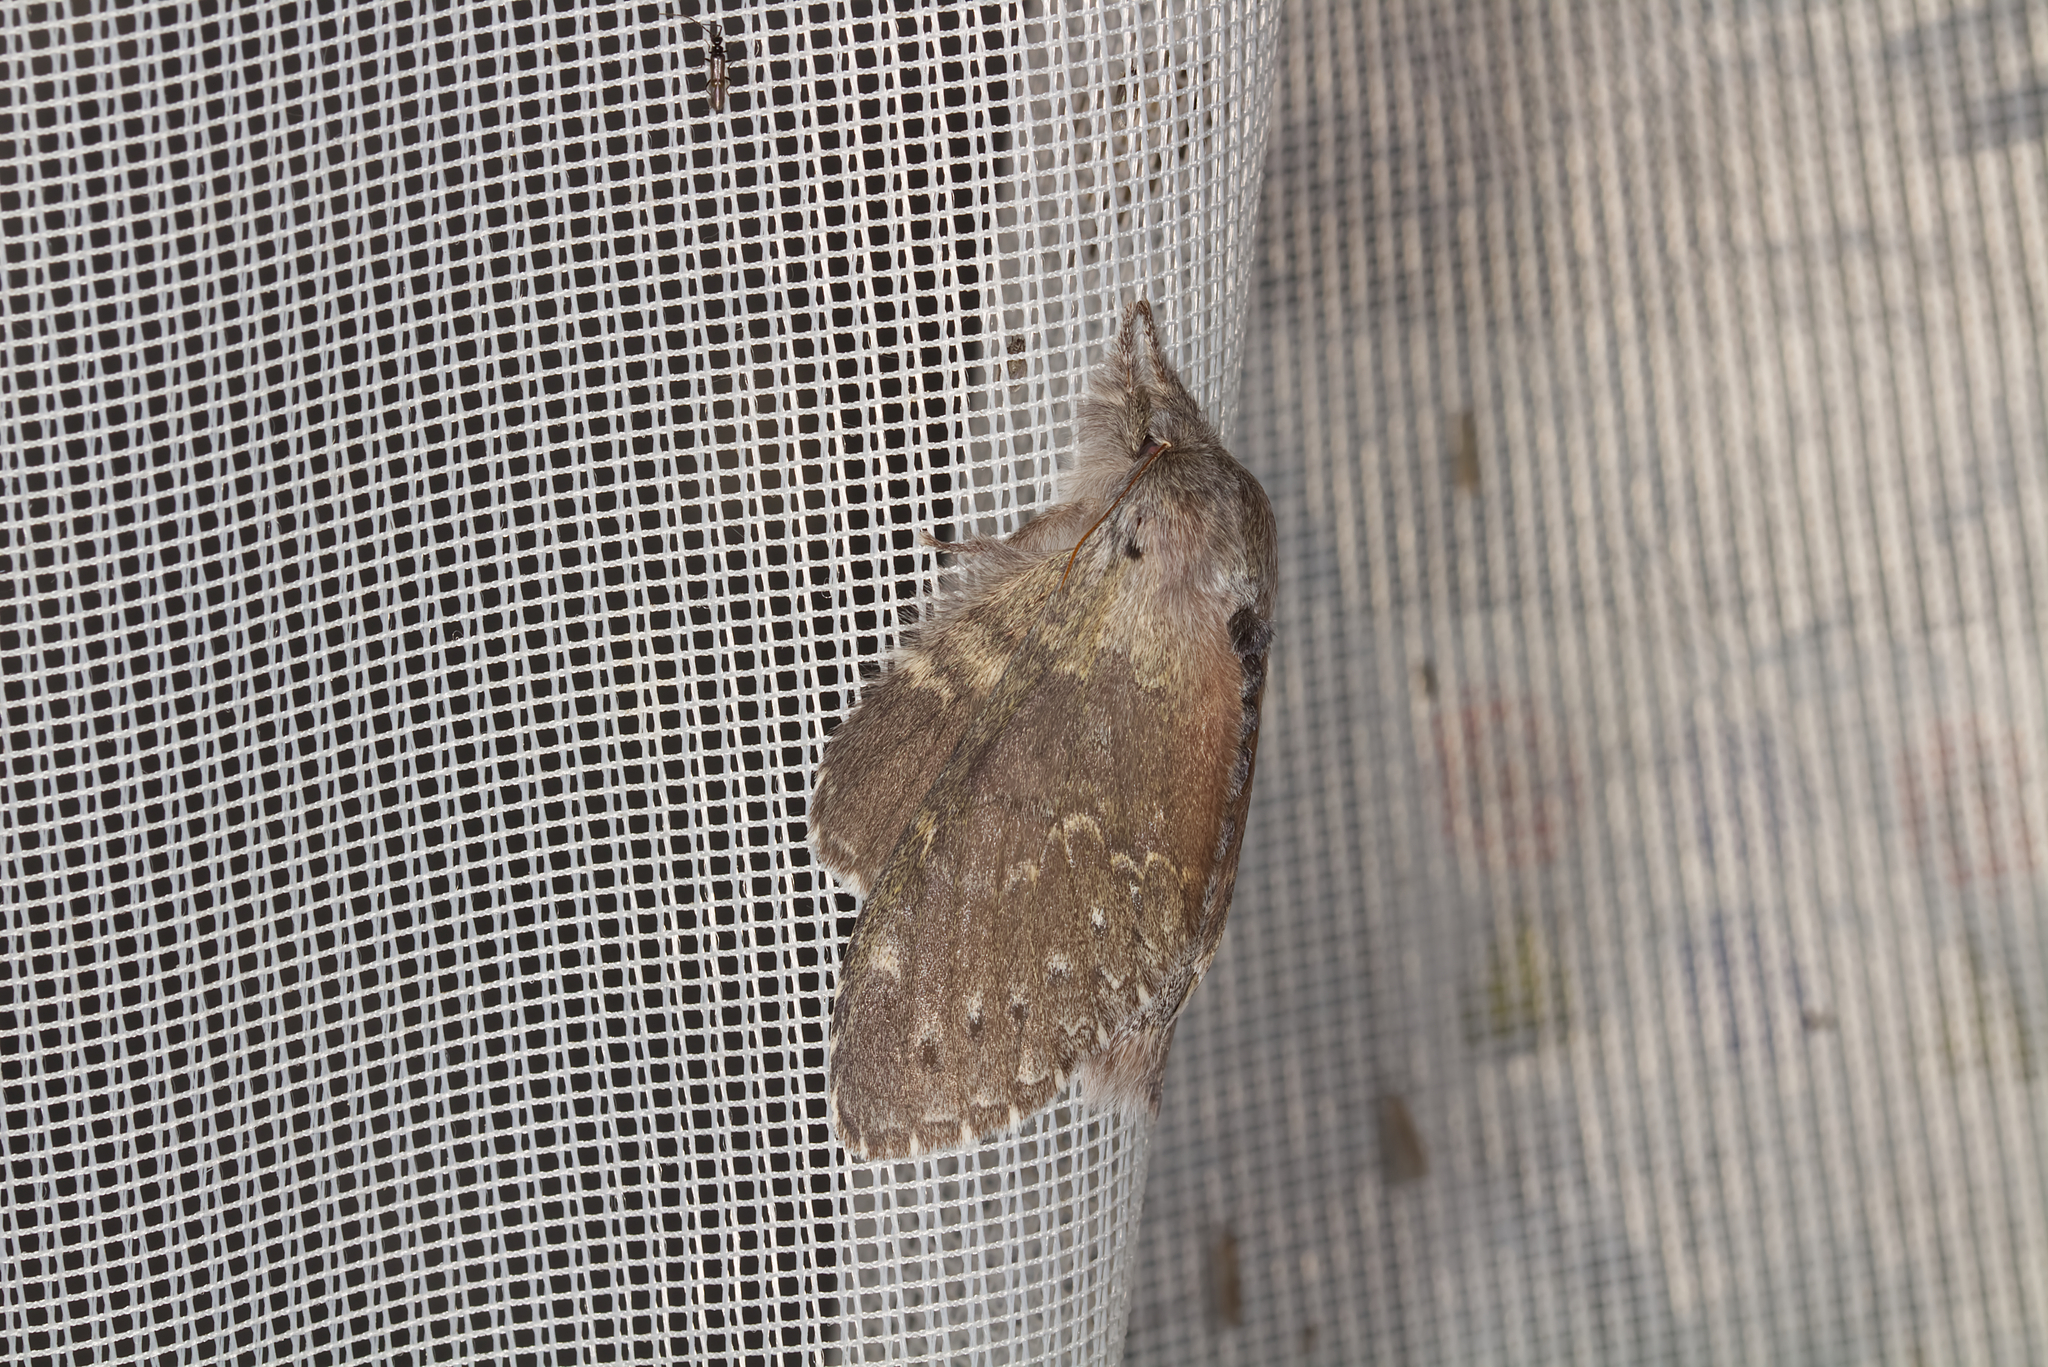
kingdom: Animalia
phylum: Arthropoda
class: Insecta
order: Lepidoptera
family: Notodontidae
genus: Stauropus
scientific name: Stauropus fagi
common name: Lobster moth
